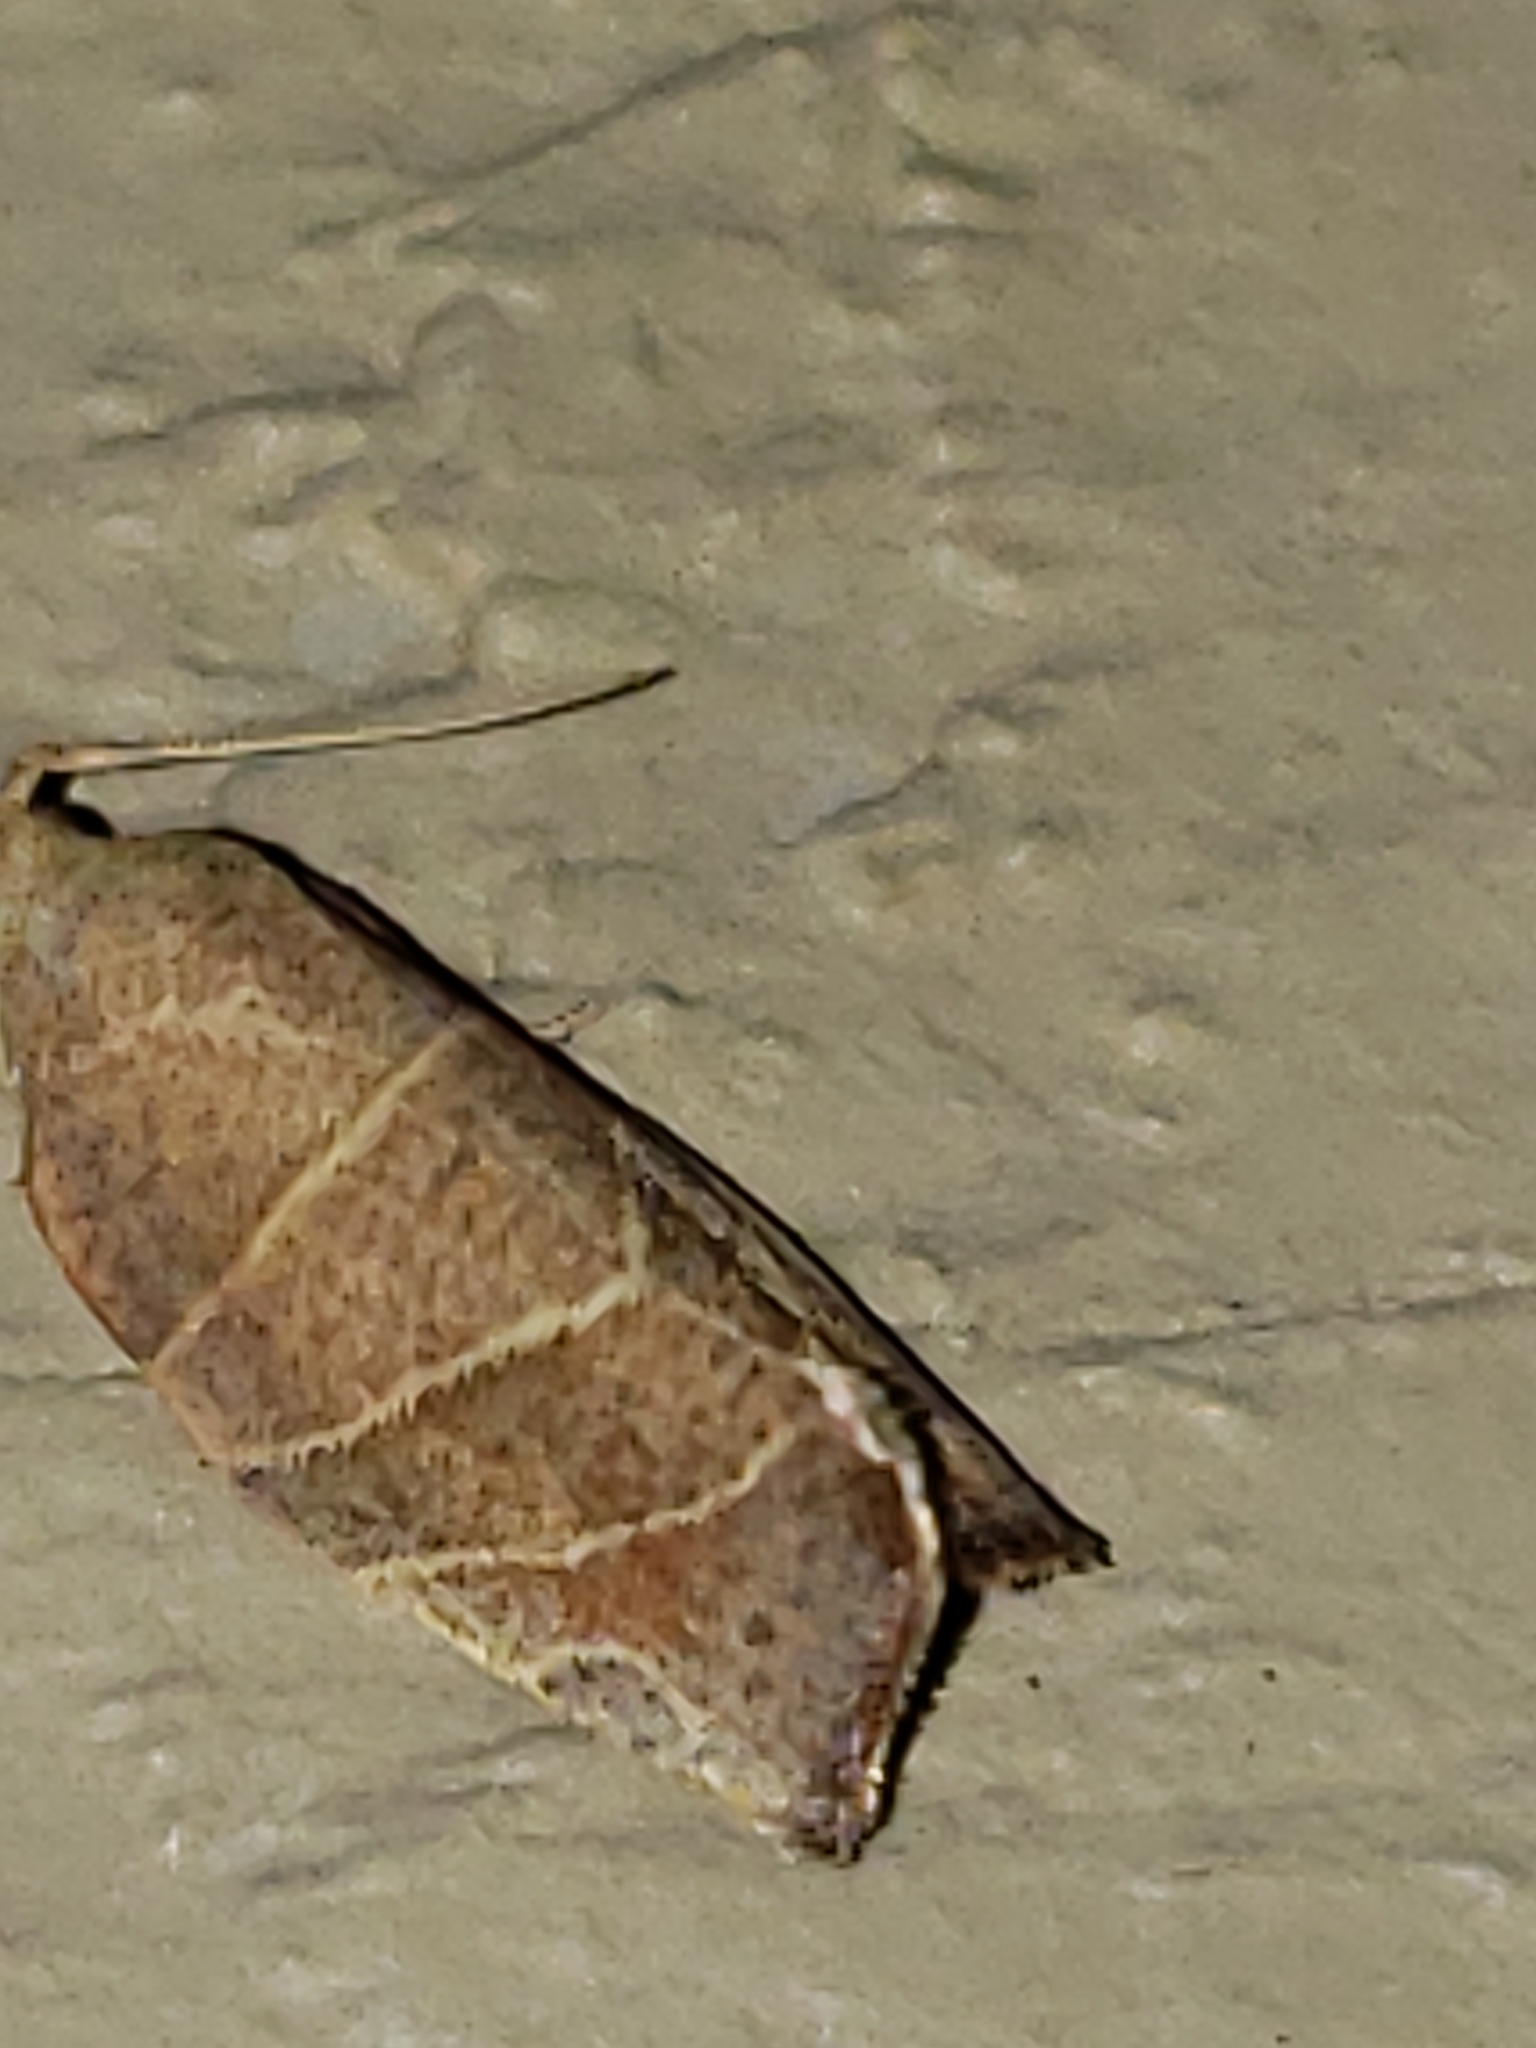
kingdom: Animalia
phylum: Arthropoda
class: Insecta
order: Lepidoptera
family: Tortricidae
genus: Pandemis
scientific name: Pandemis limitata
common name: Three-lined leafroller moth
